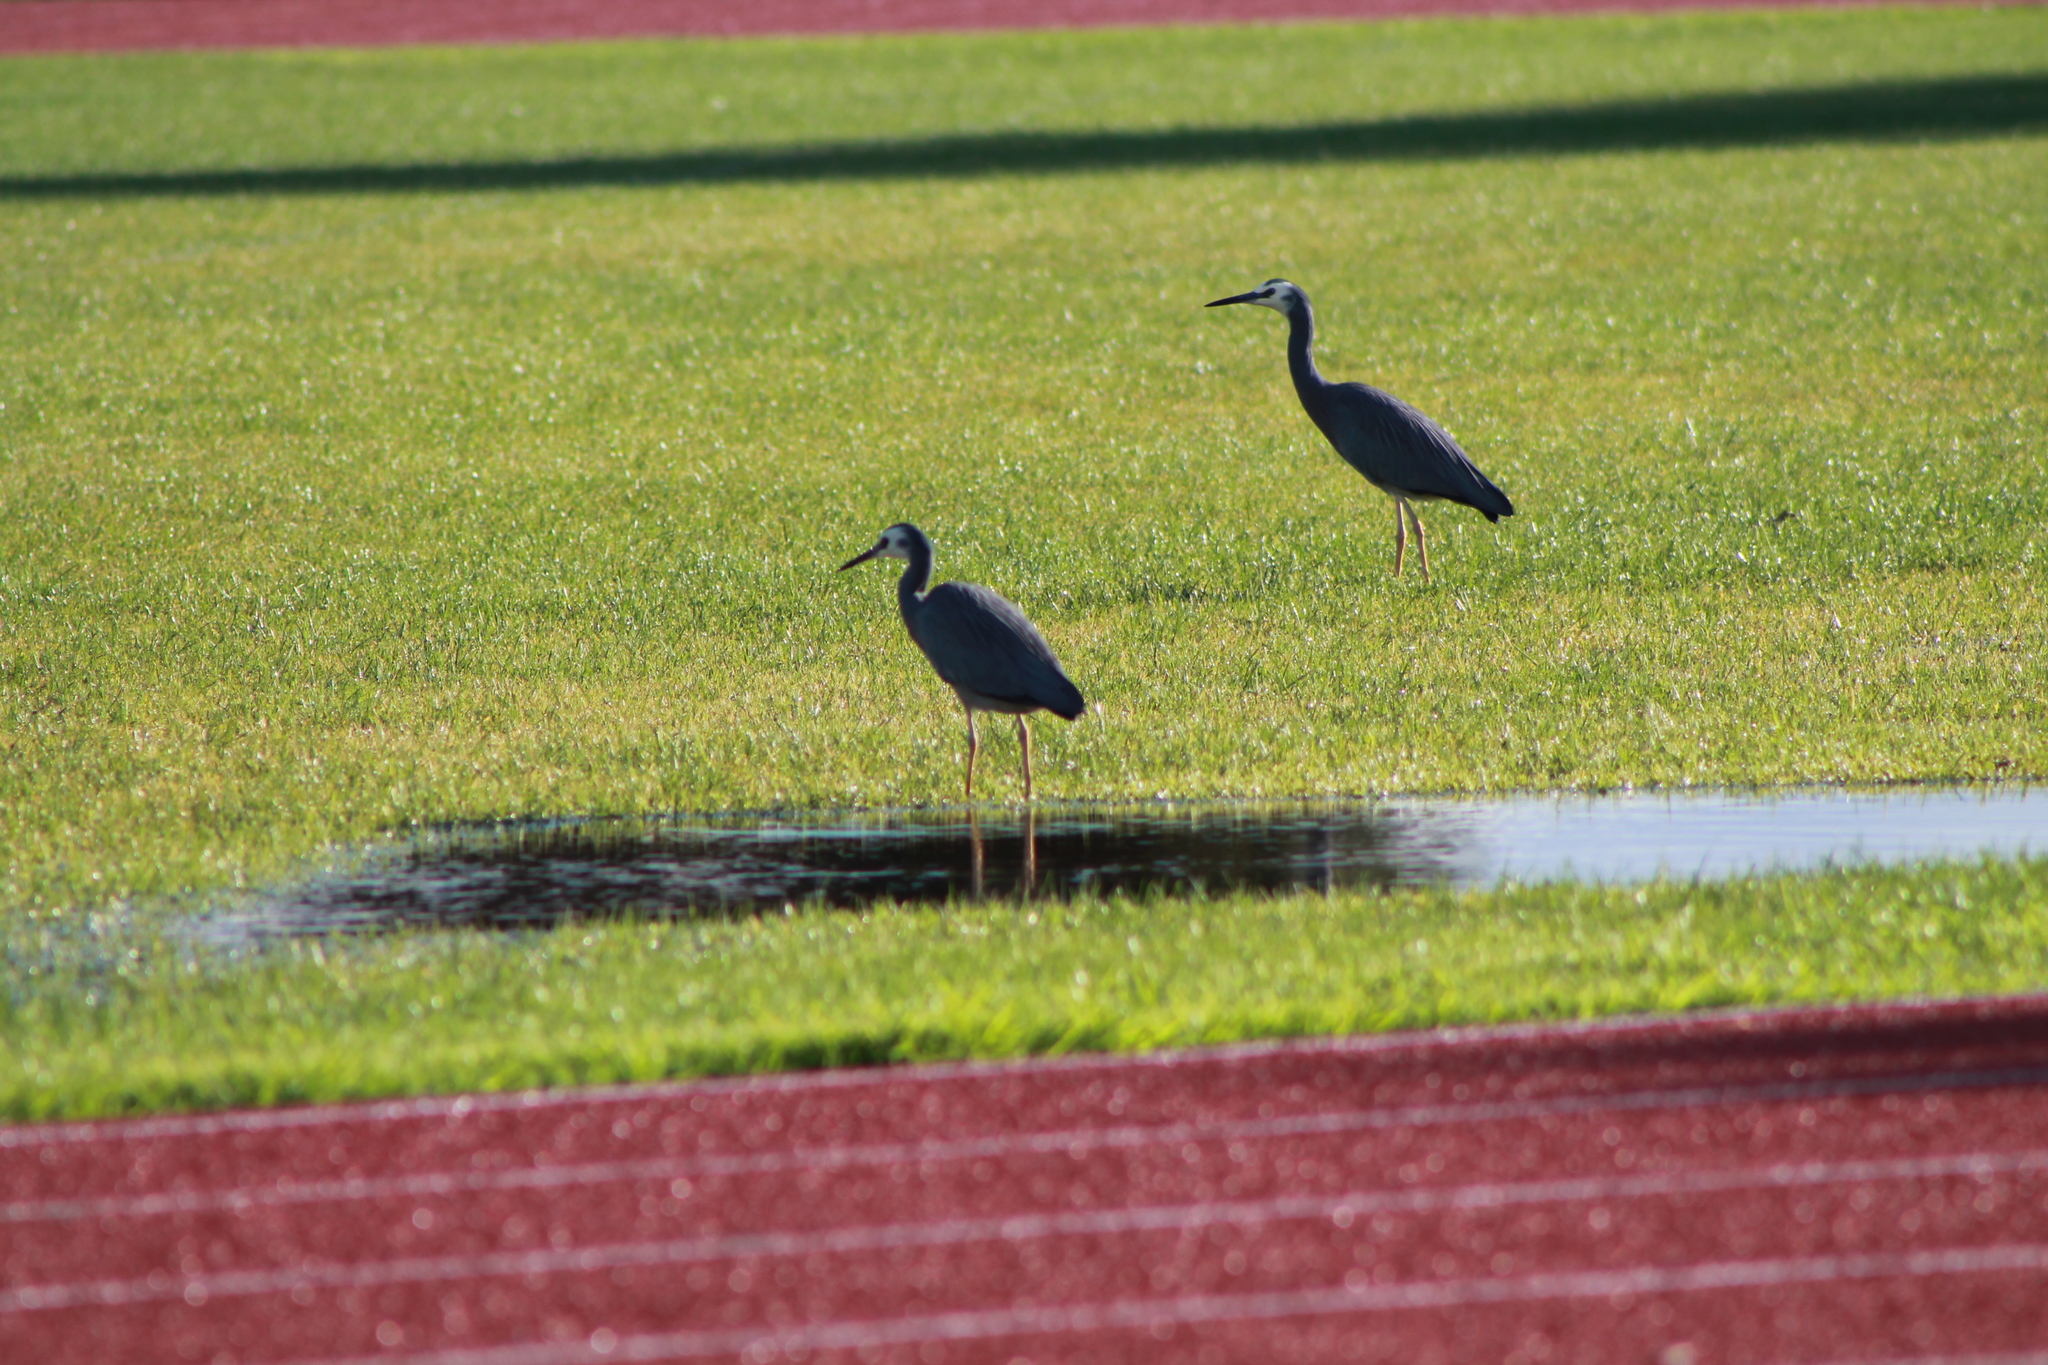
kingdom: Animalia
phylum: Chordata
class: Aves
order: Pelecaniformes
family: Ardeidae
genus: Egretta
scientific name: Egretta novaehollandiae
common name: White-faced heron
